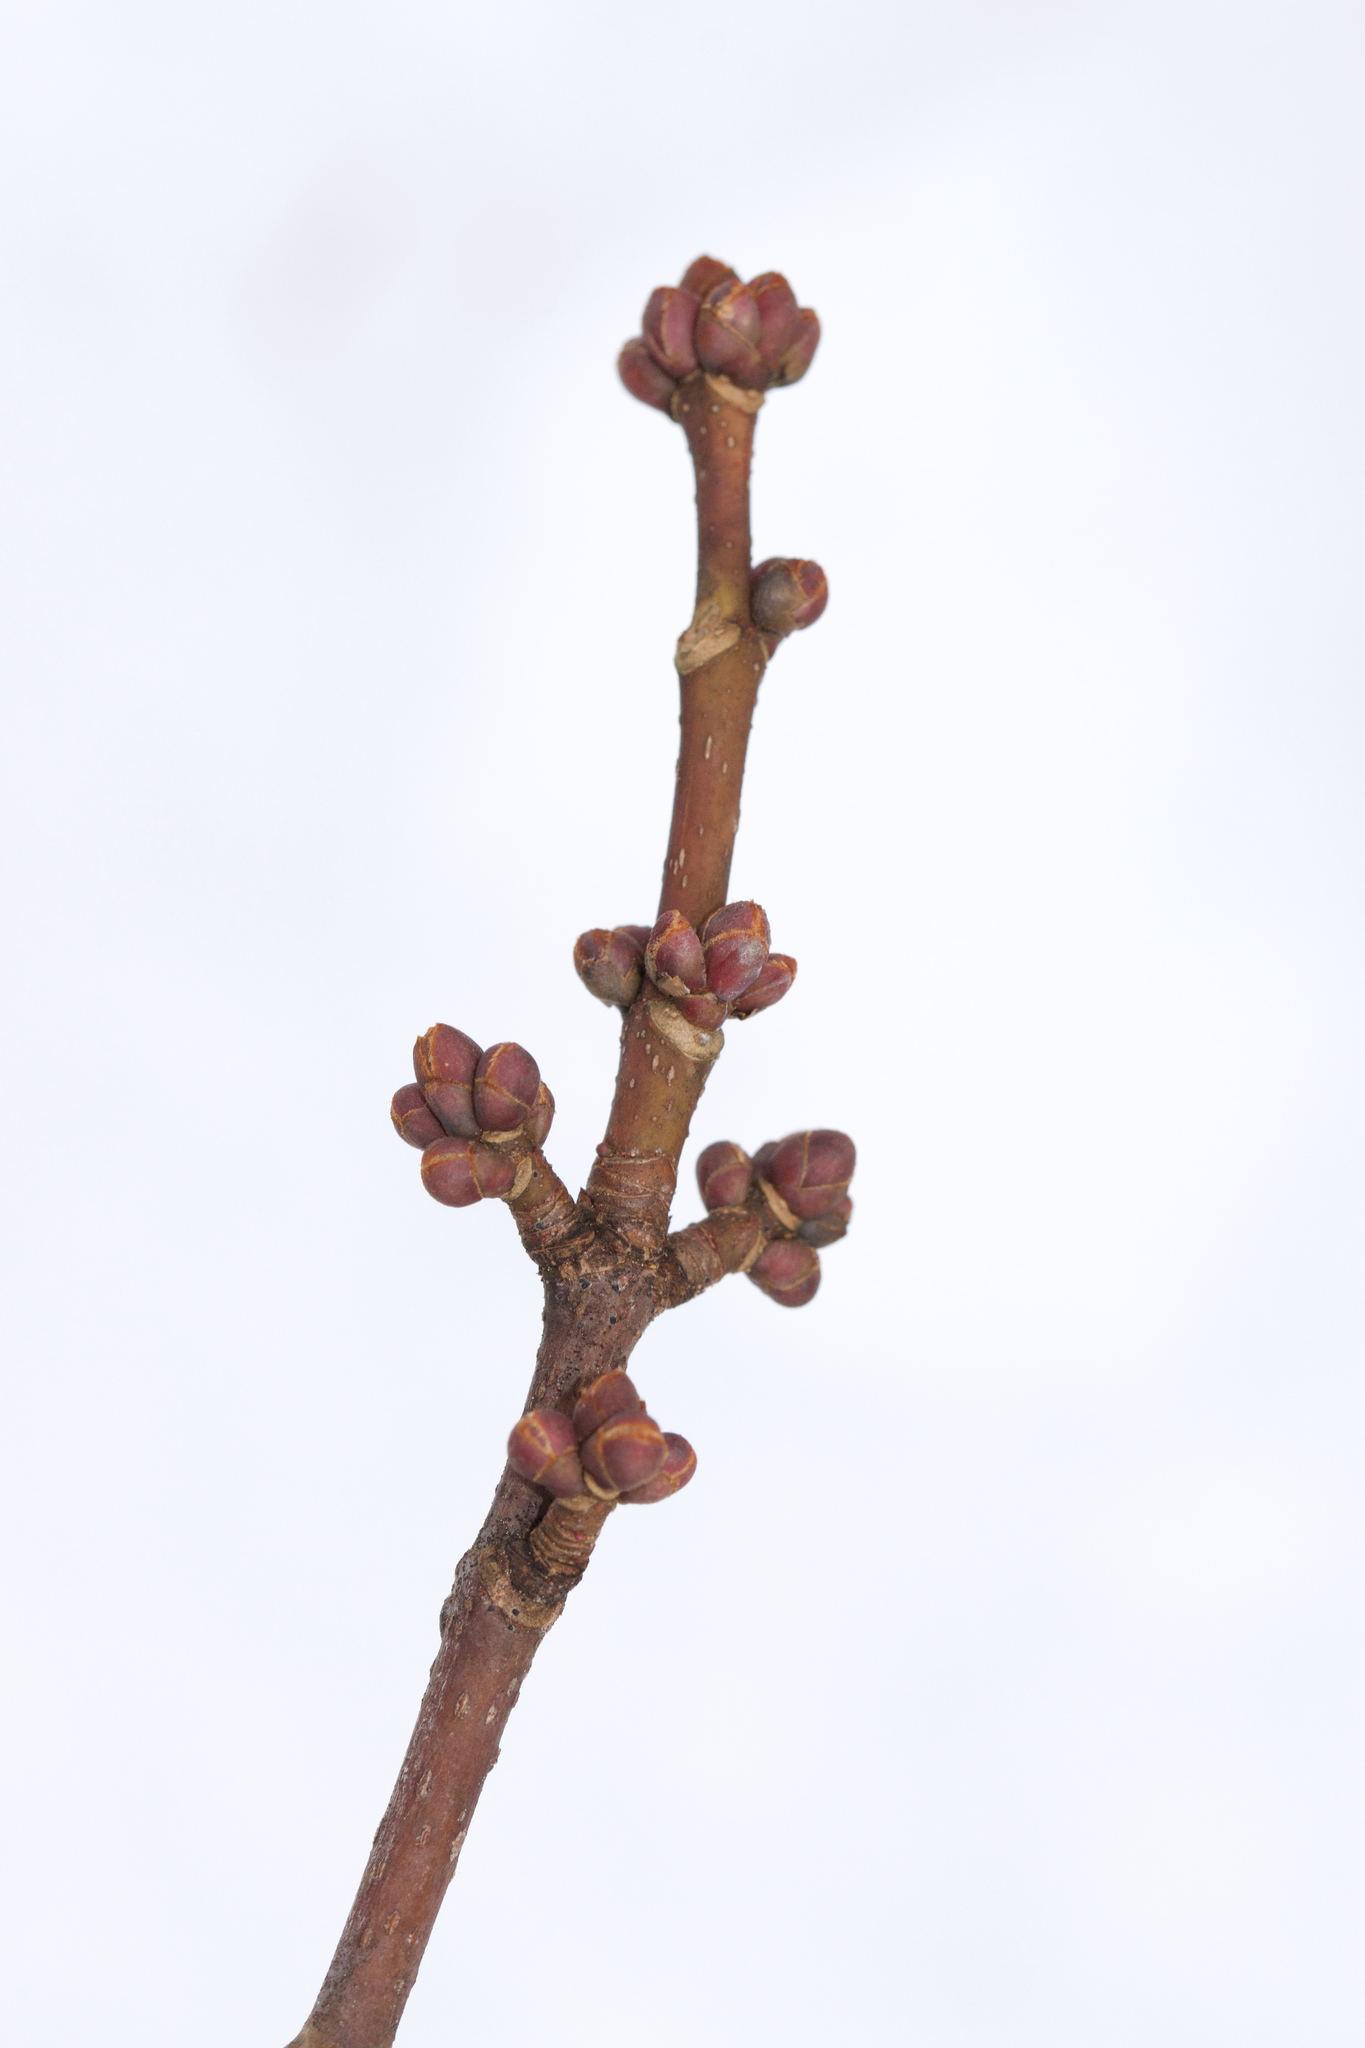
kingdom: Plantae
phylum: Tracheophyta
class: Magnoliopsida
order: Sapindales
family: Sapindaceae
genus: Acer
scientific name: Acer rubrum
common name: Red maple
